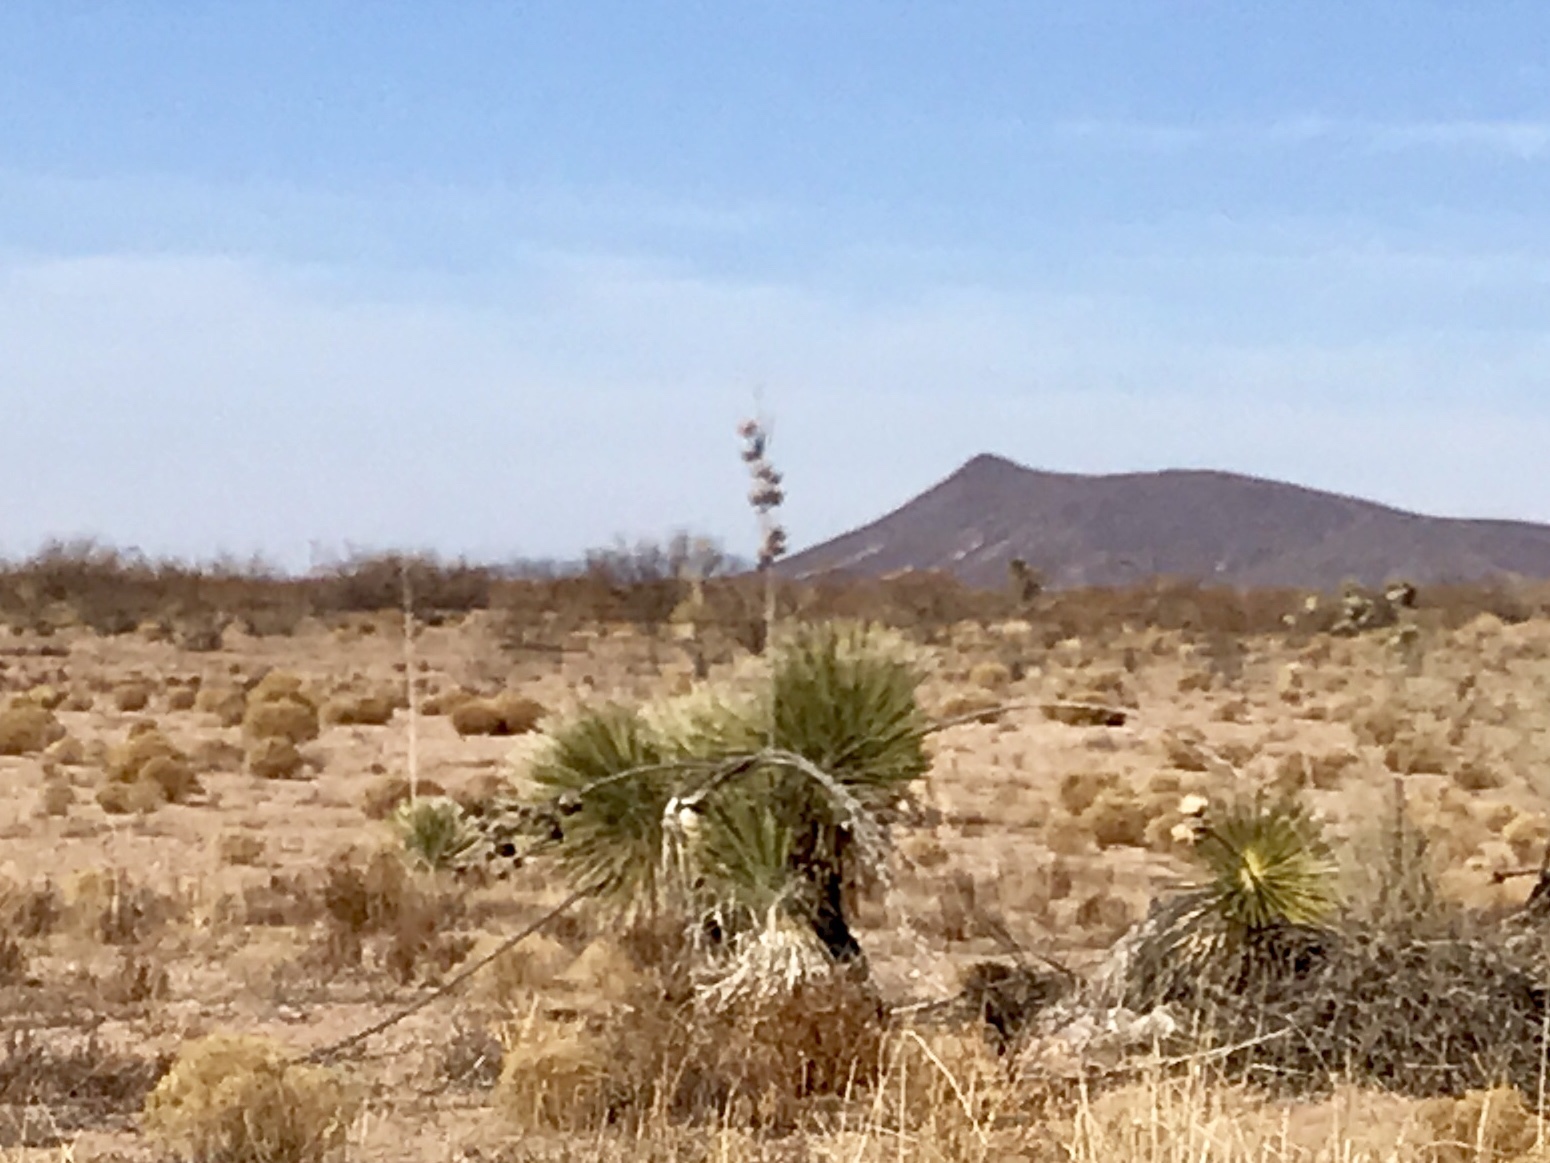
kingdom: Plantae
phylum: Tracheophyta
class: Liliopsida
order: Asparagales
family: Asparagaceae
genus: Yucca
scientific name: Yucca elata
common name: Palmella
